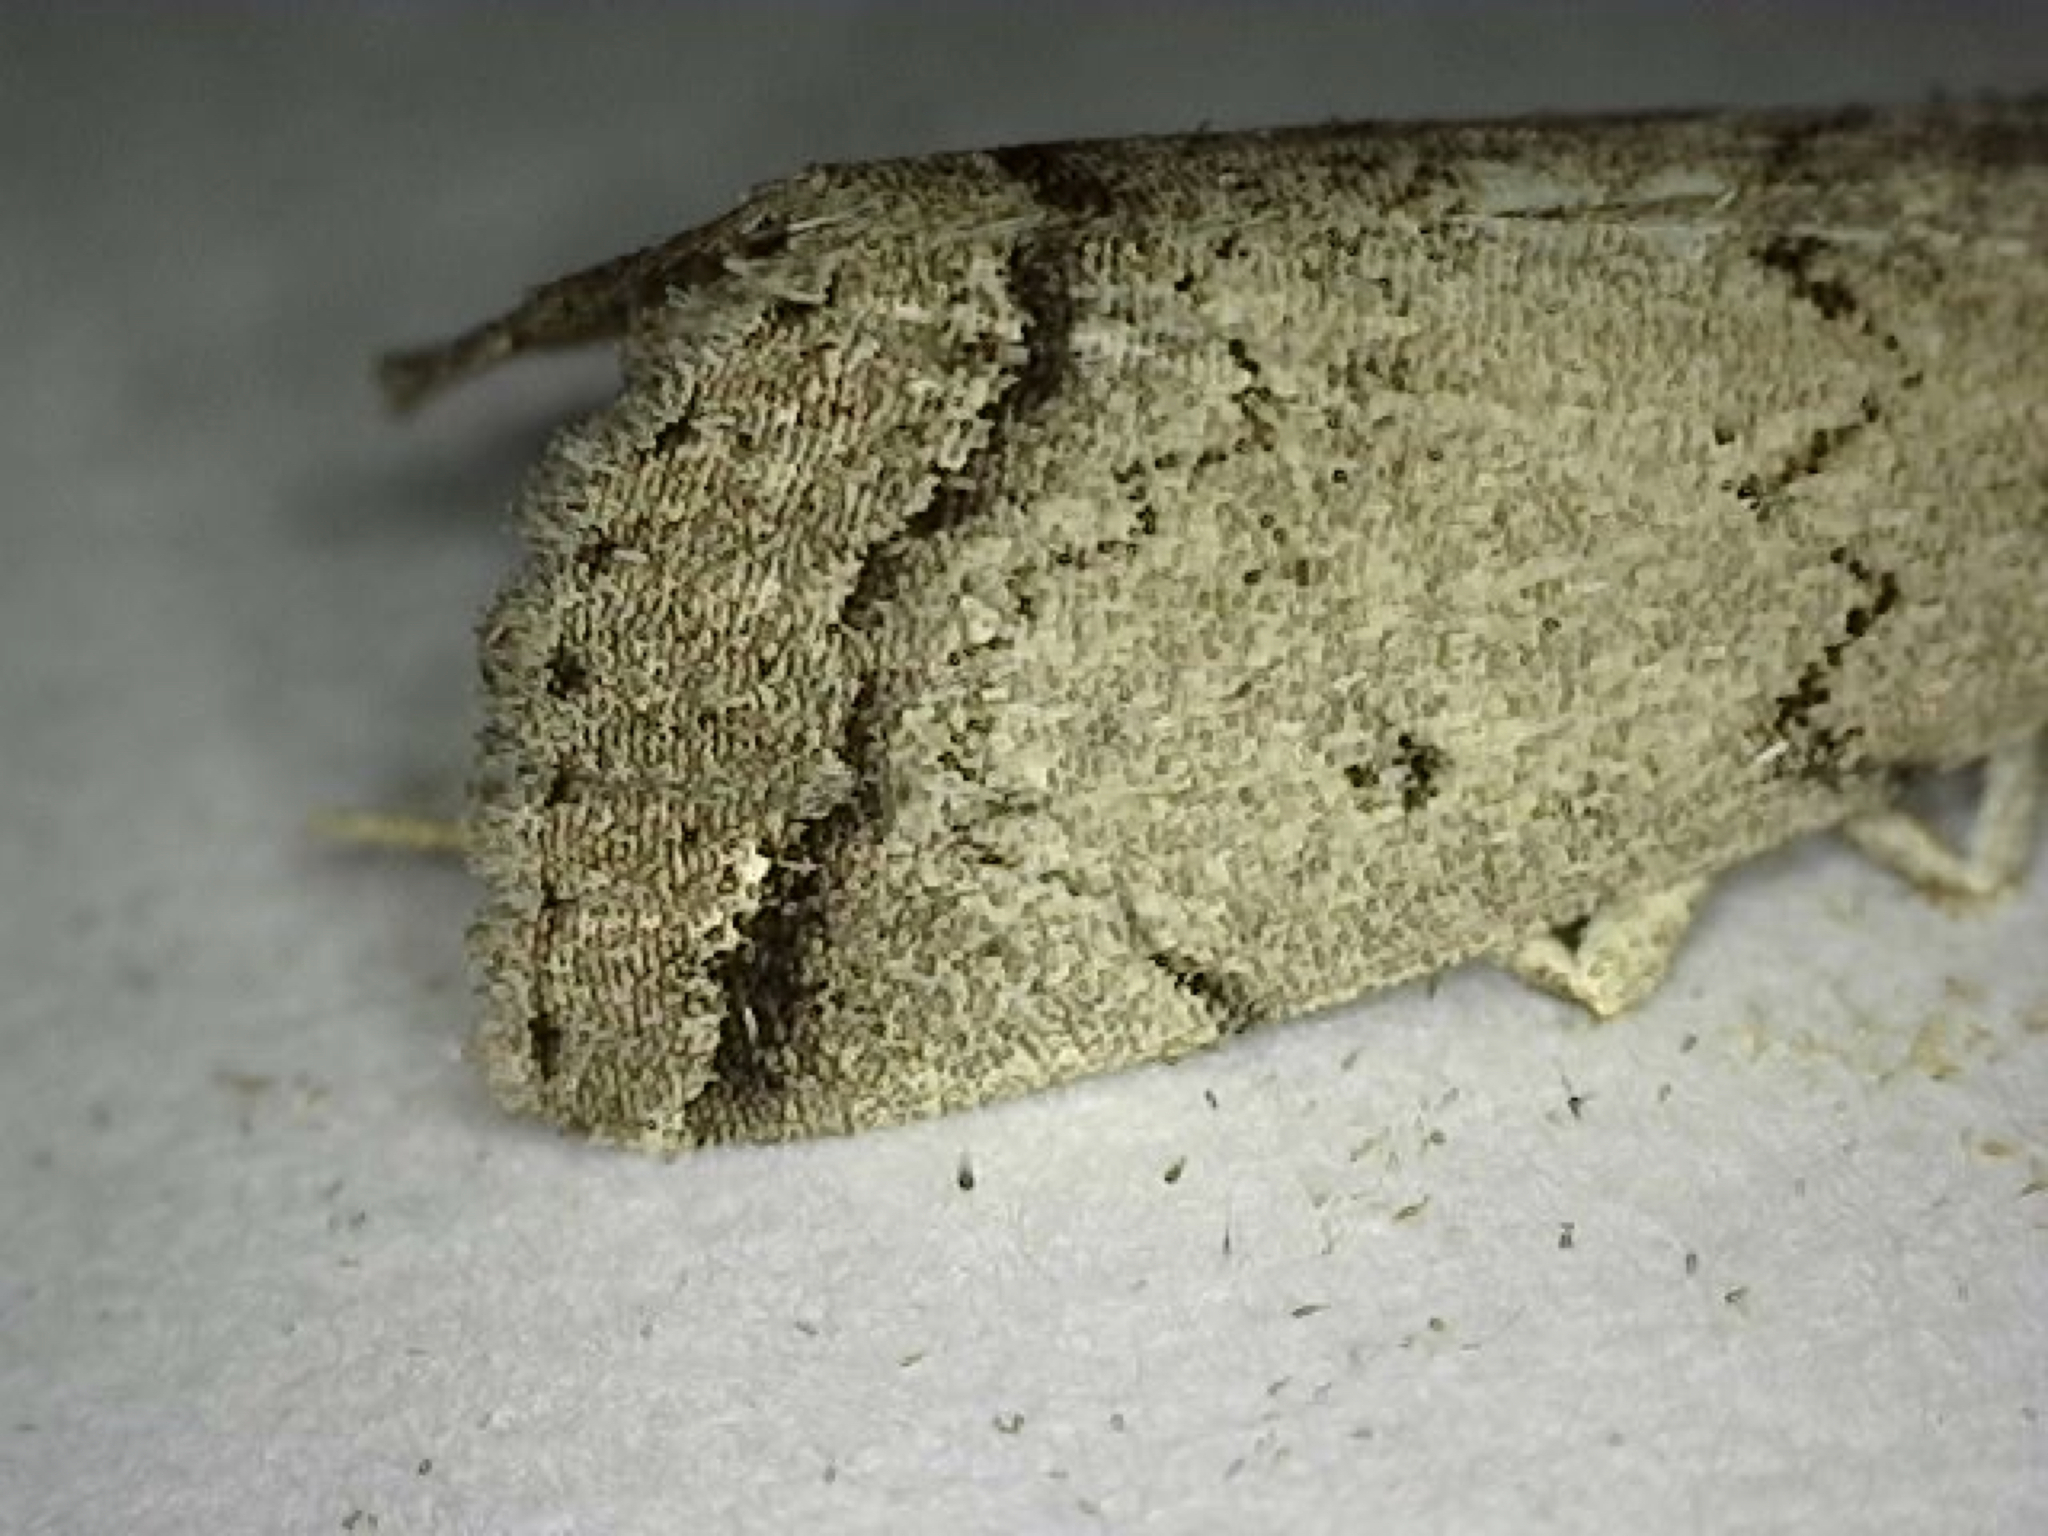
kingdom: Animalia
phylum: Arthropoda
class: Insecta
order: Lepidoptera
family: Erebidae
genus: Zanclognatha
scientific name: Zanclognatha theralis
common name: Flagged fan-foot
